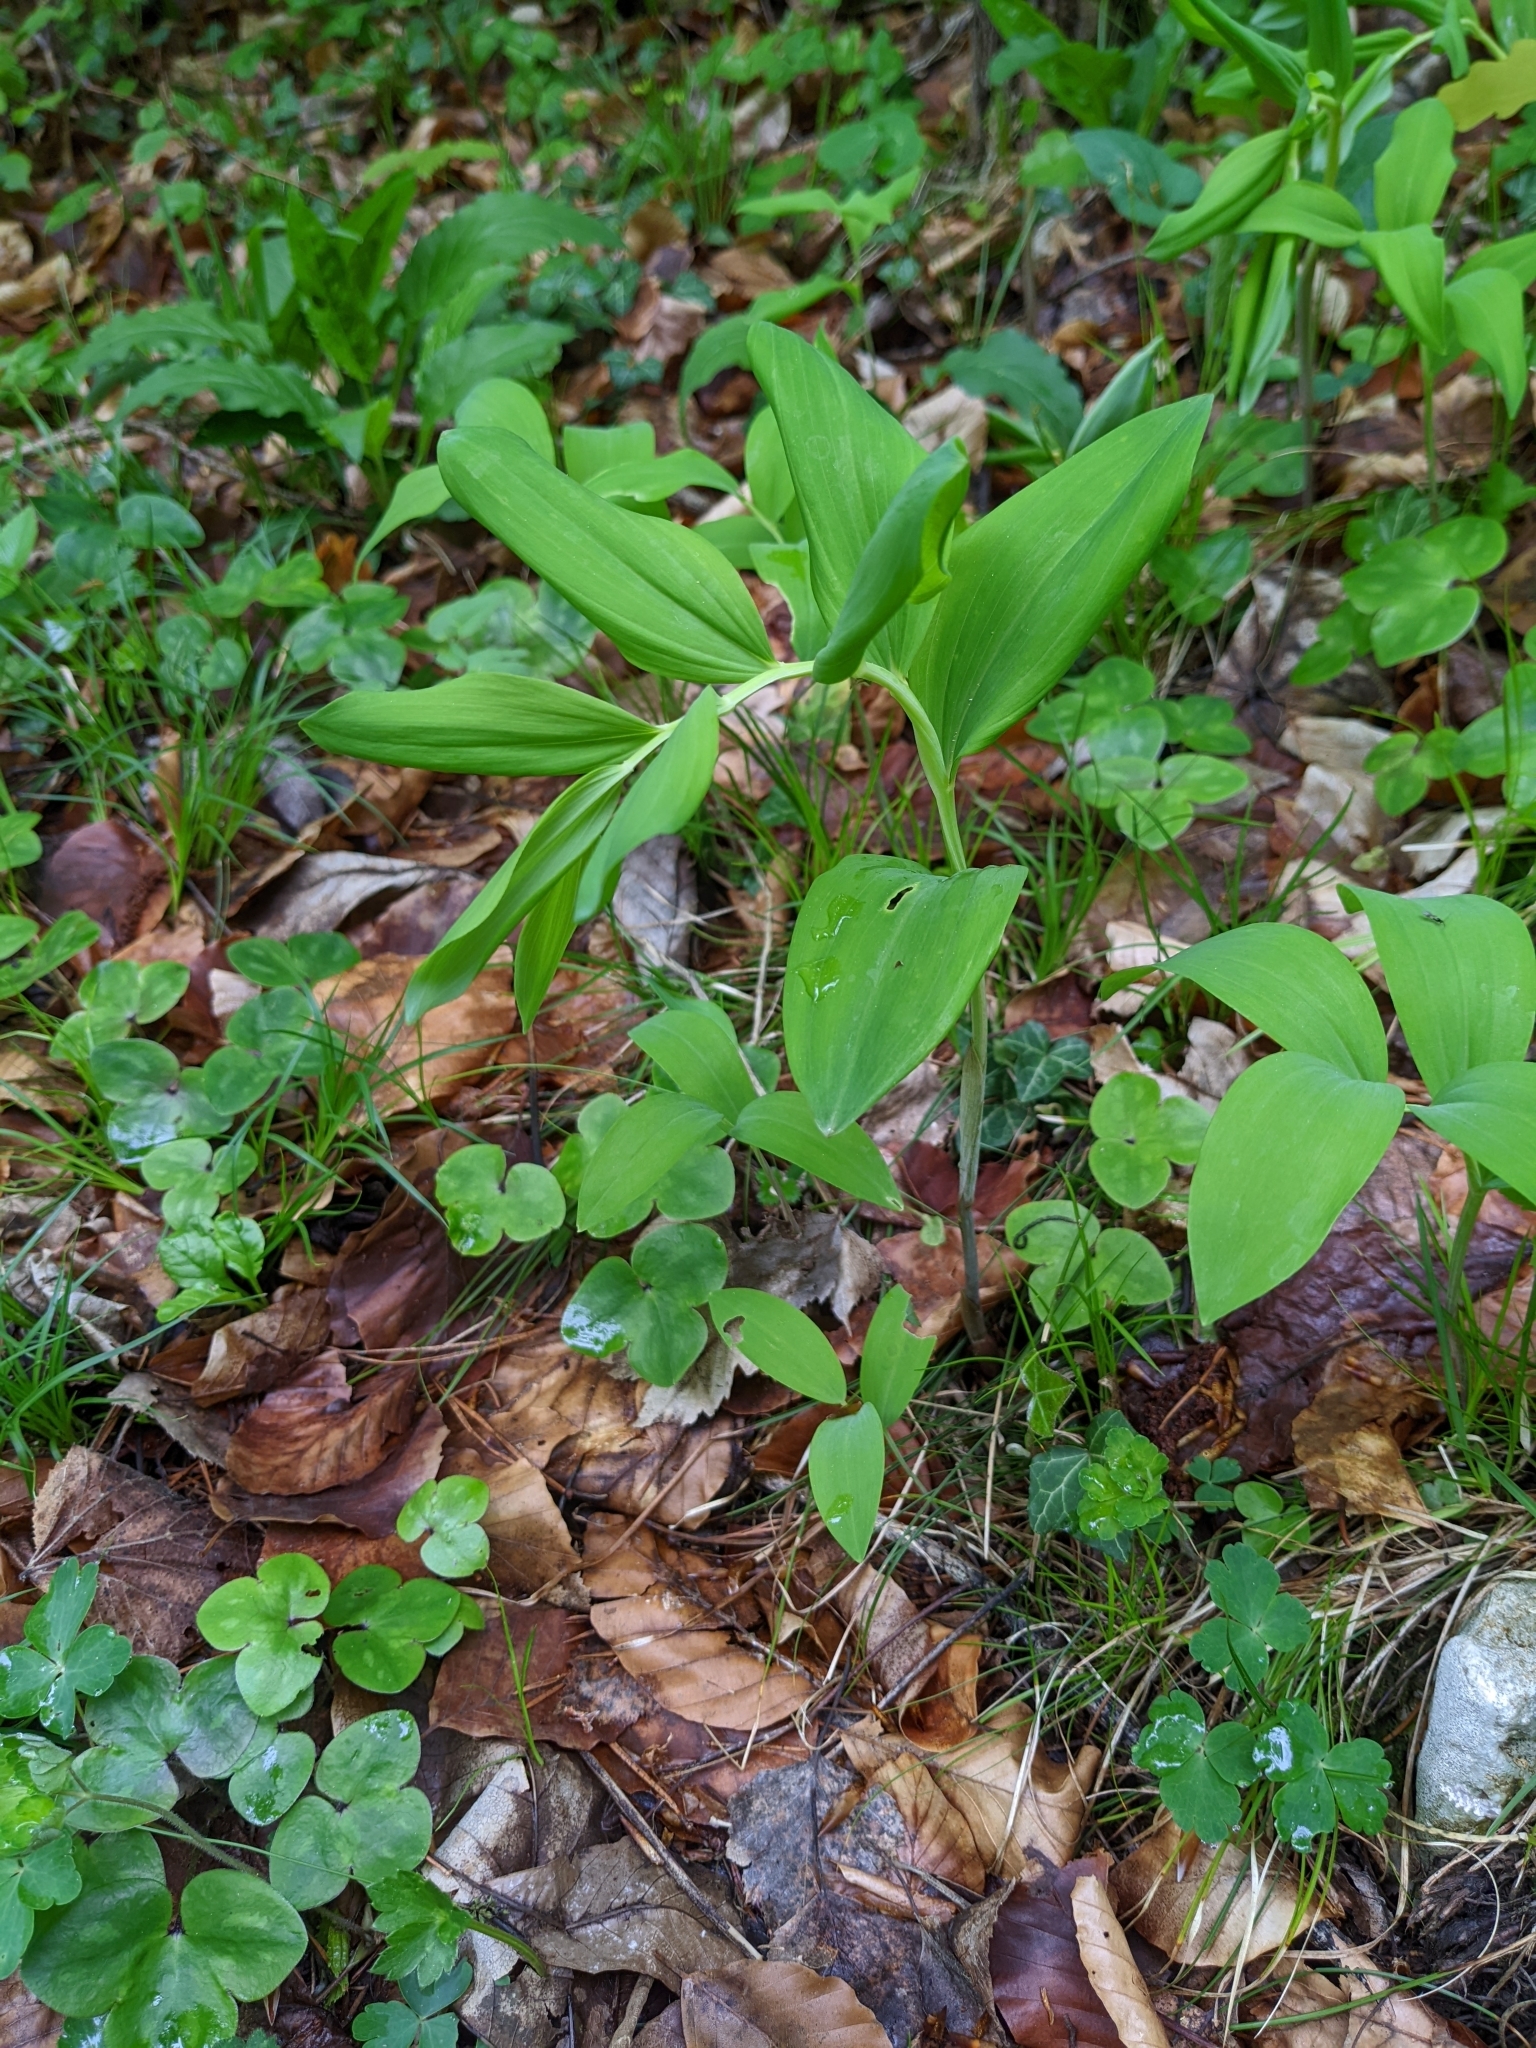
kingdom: Plantae
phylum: Tracheophyta
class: Liliopsida
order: Asparagales
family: Asparagaceae
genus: Polygonatum
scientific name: Polygonatum odoratum
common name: Angular solomon's-seal
